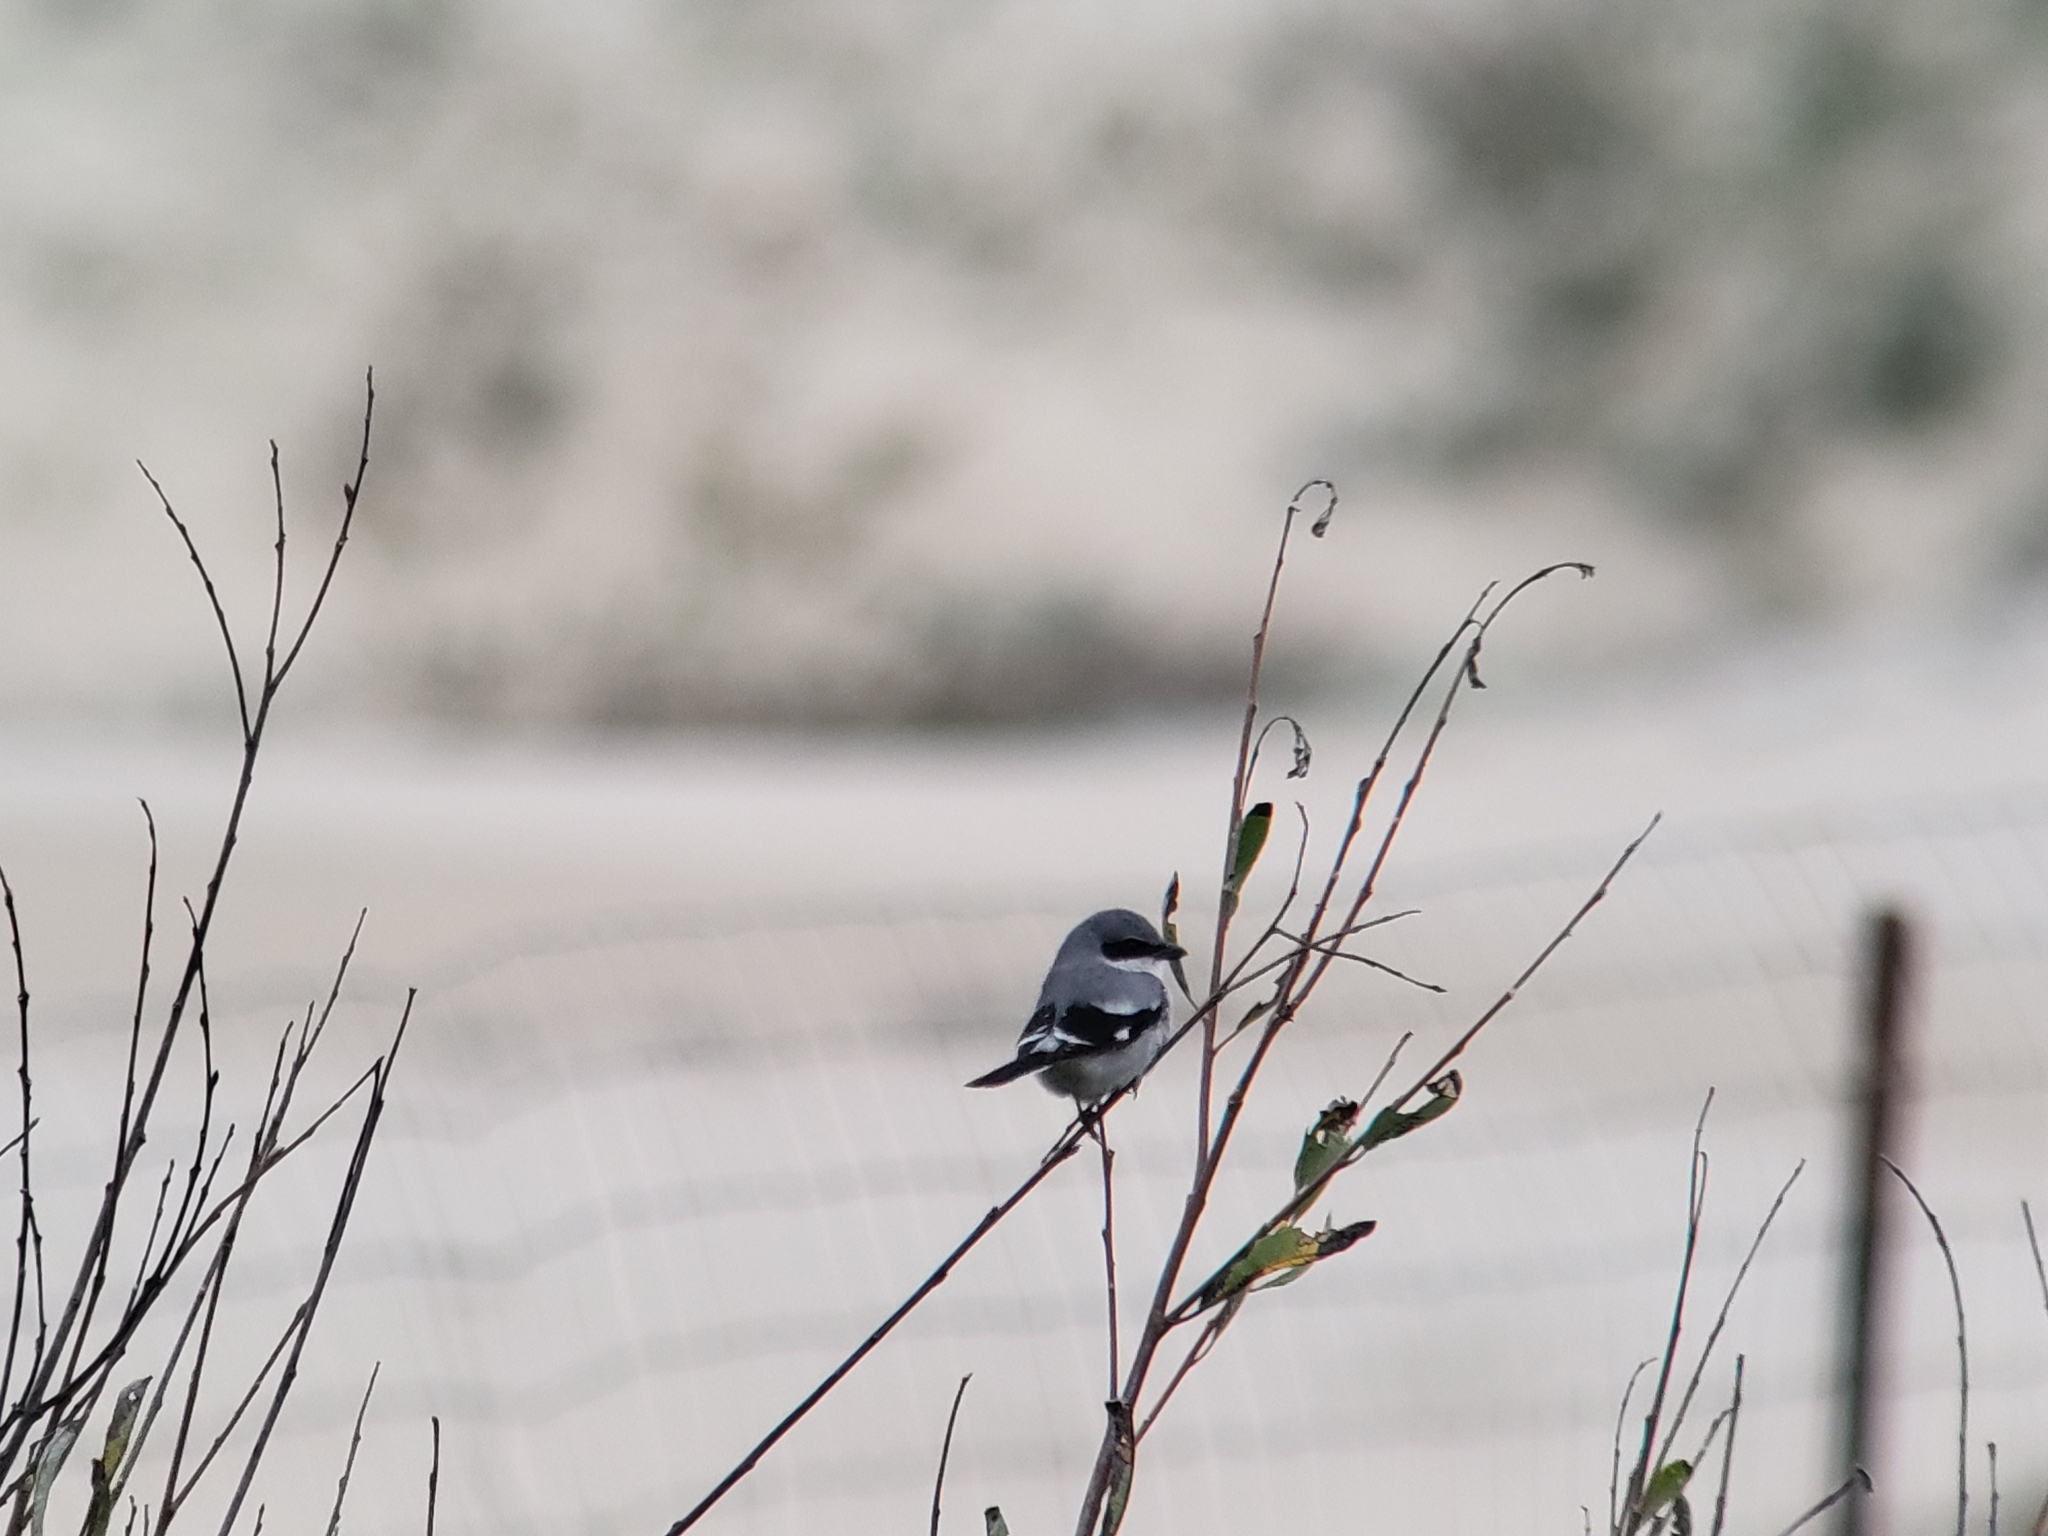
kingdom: Animalia
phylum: Chordata
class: Aves
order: Passeriformes
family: Laniidae
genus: Lanius
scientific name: Lanius ludovicianus
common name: Loggerhead shrike
